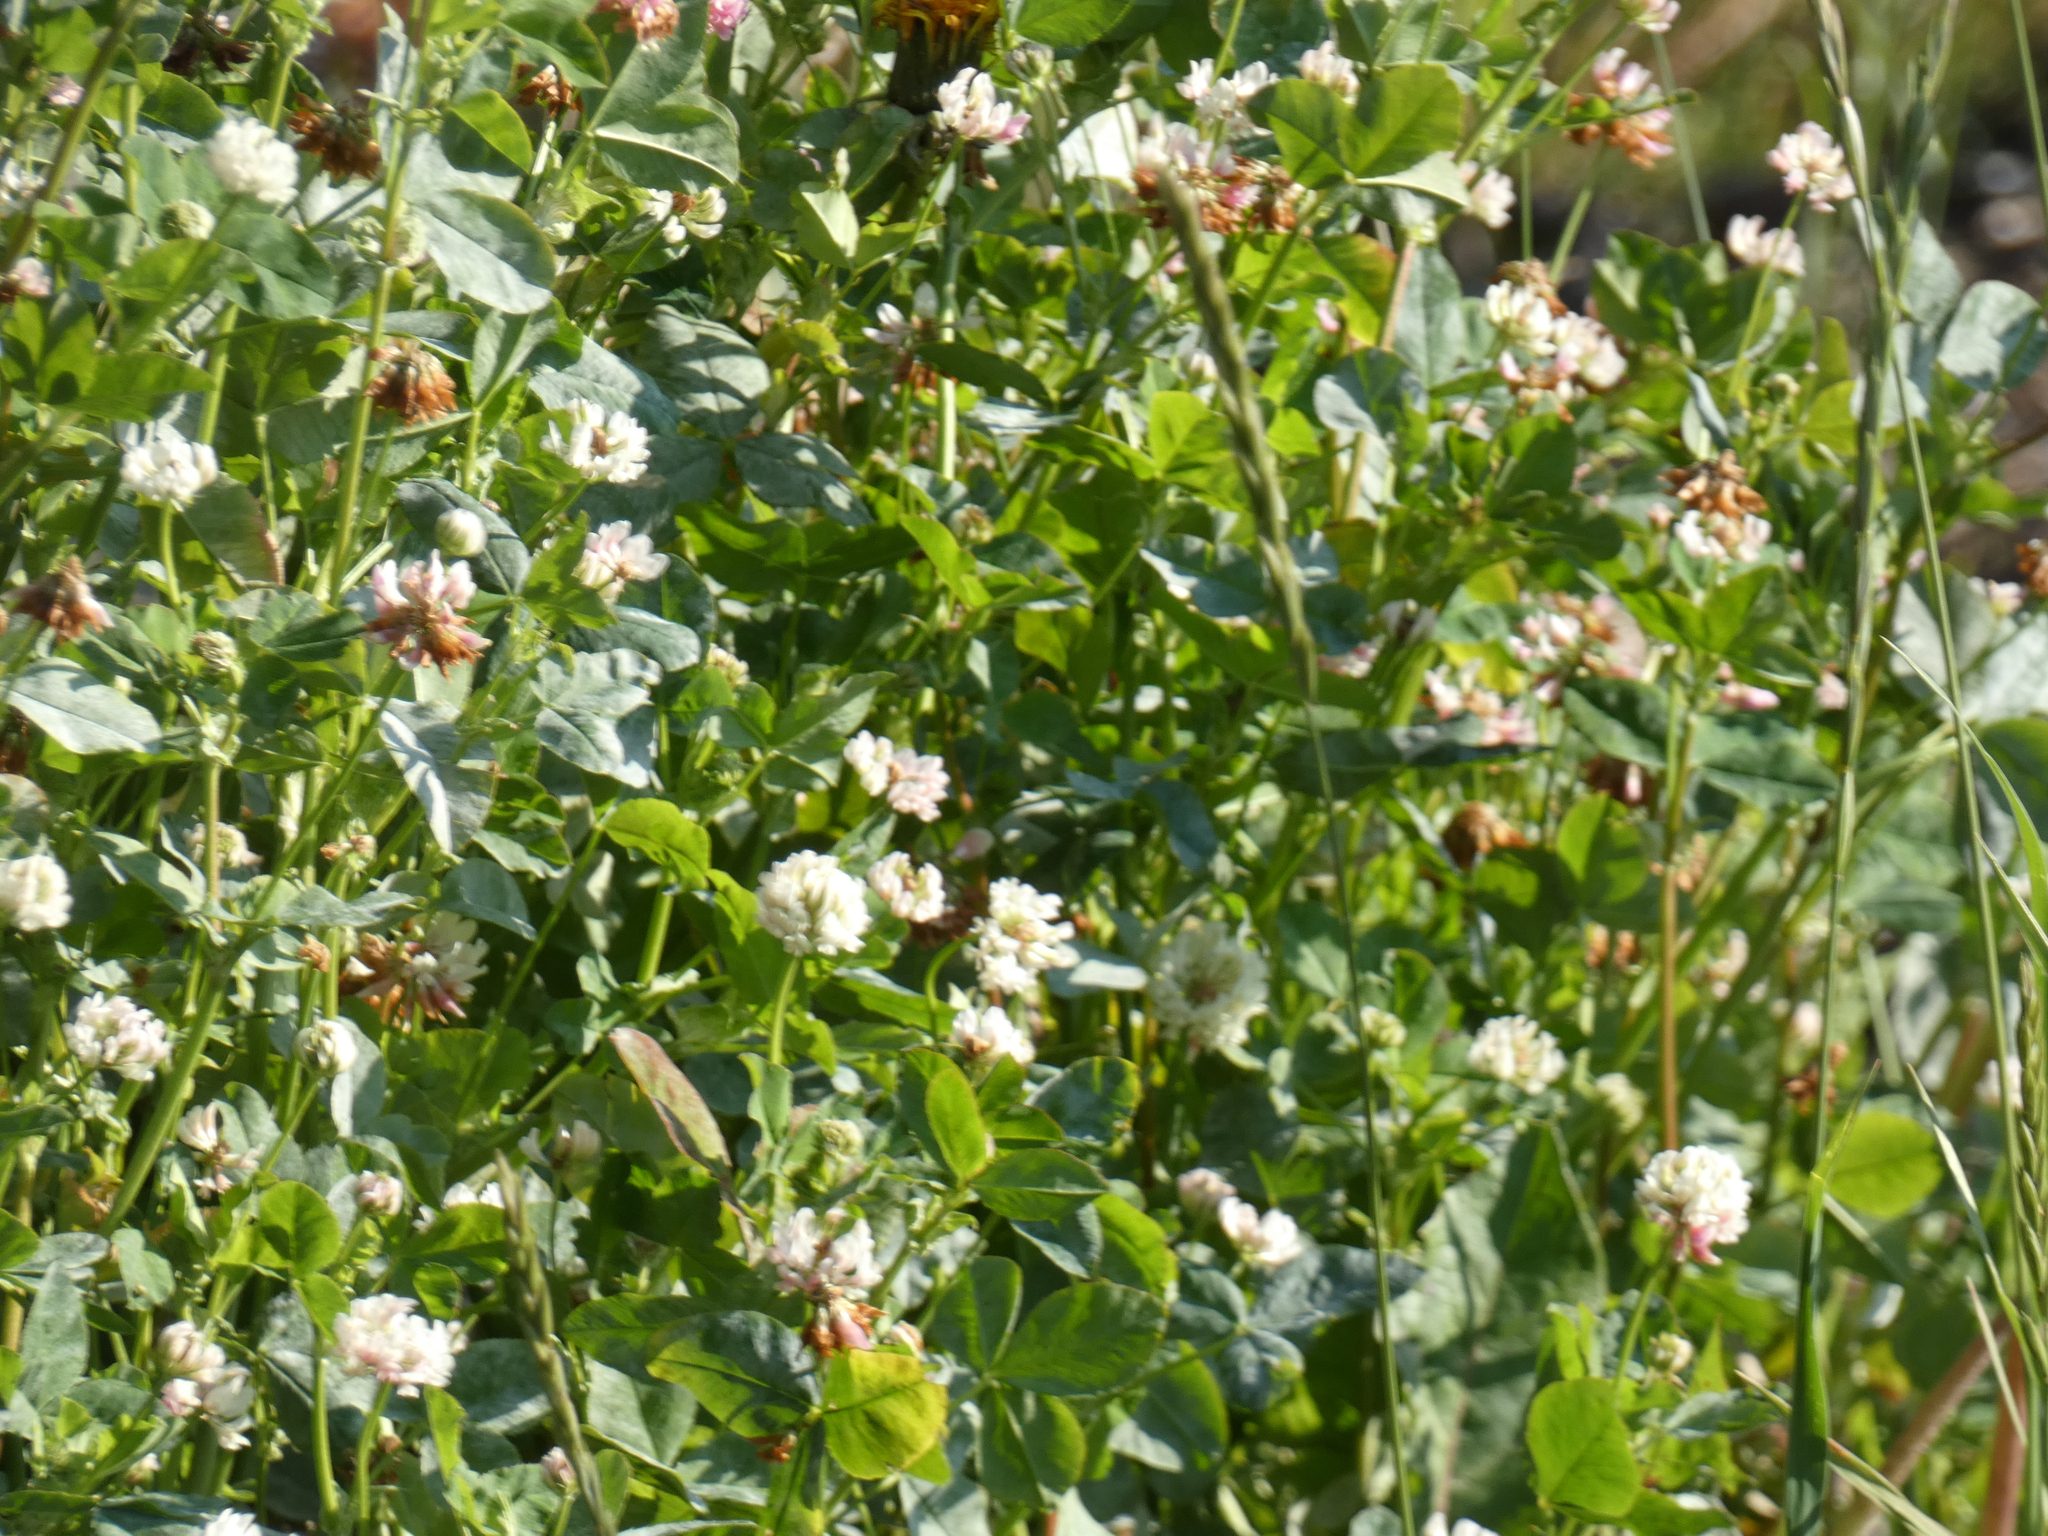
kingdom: Plantae
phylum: Tracheophyta
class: Magnoliopsida
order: Fabales
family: Fabaceae
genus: Trifolium
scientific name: Trifolium hybridum
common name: Alsike clover
